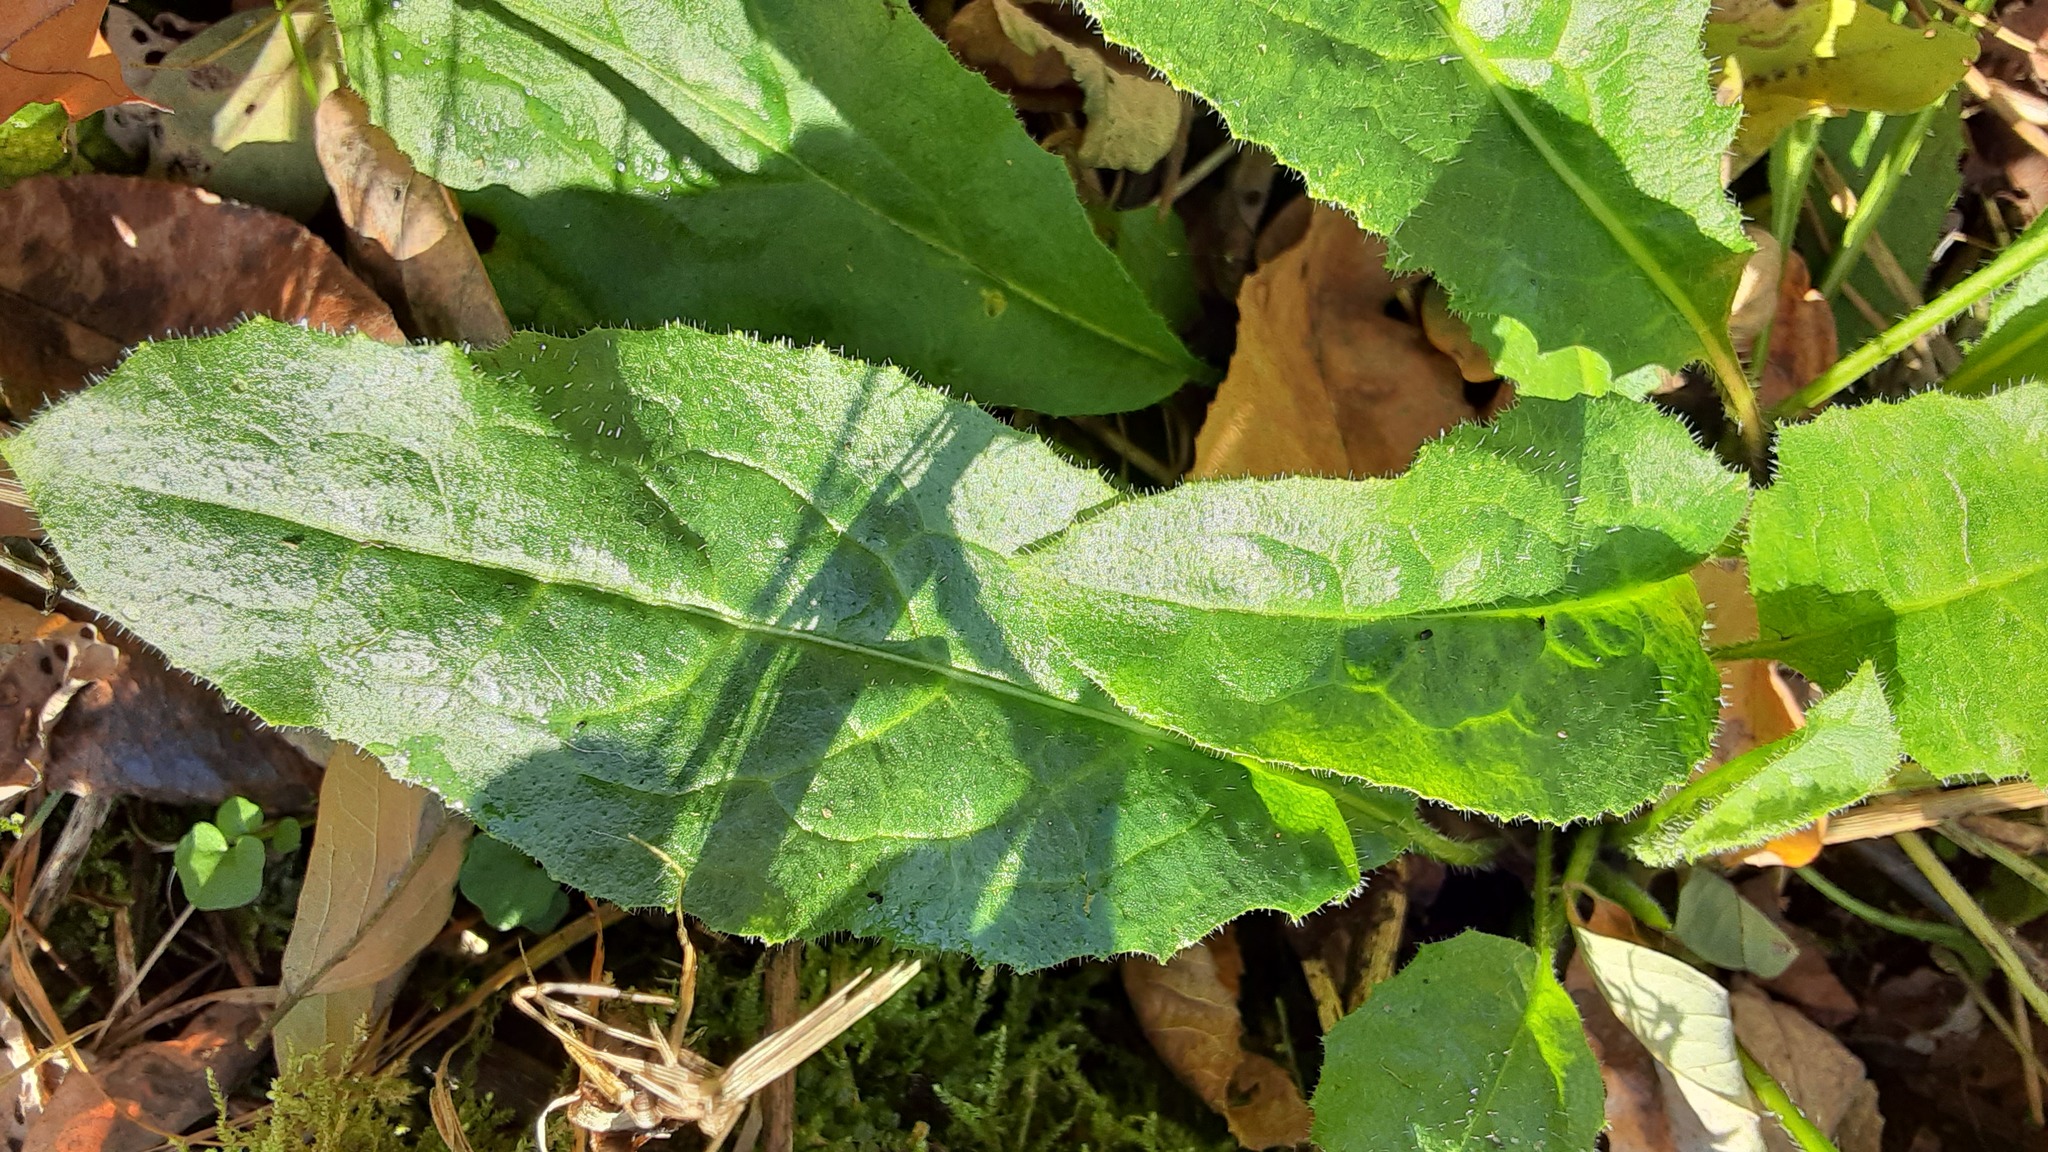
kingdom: Plantae
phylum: Tracheophyta
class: Magnoliopsida
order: Brassicales
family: Brassicaceae
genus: Hesperis
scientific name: Hesperis matronalis
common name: Dame's-violet
